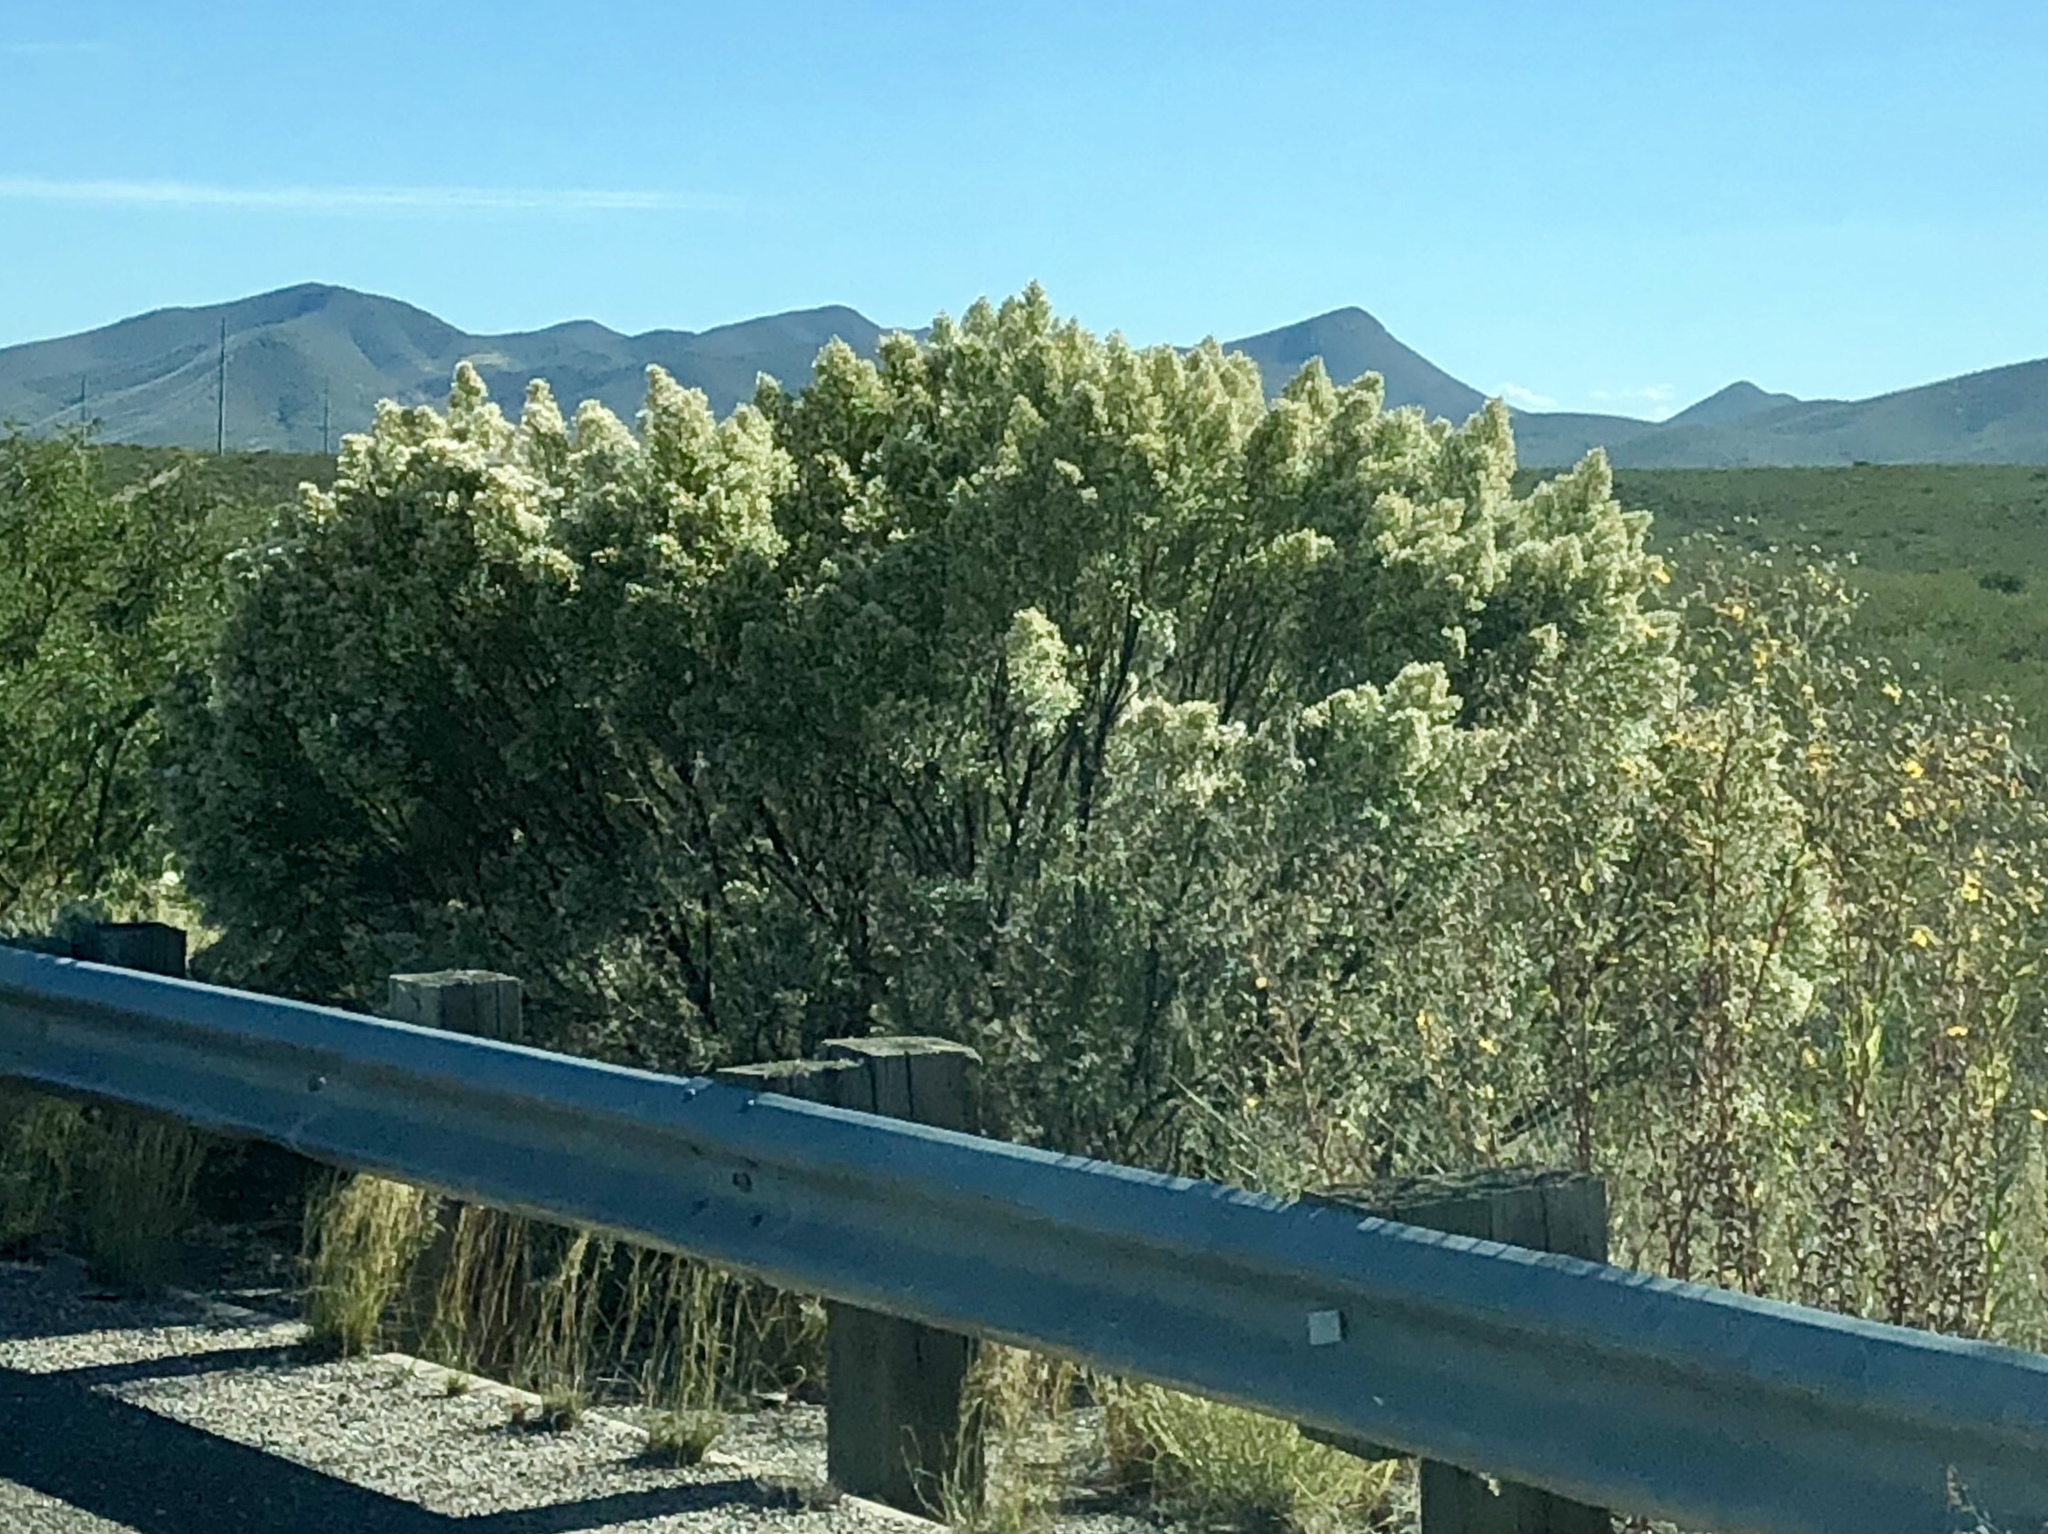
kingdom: Plantae
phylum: Tracheophyta
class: Magnoliopsida
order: Asterales
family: Asteraceae
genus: Baccharis
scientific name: Baccharis sarothroides
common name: Desert-broom
